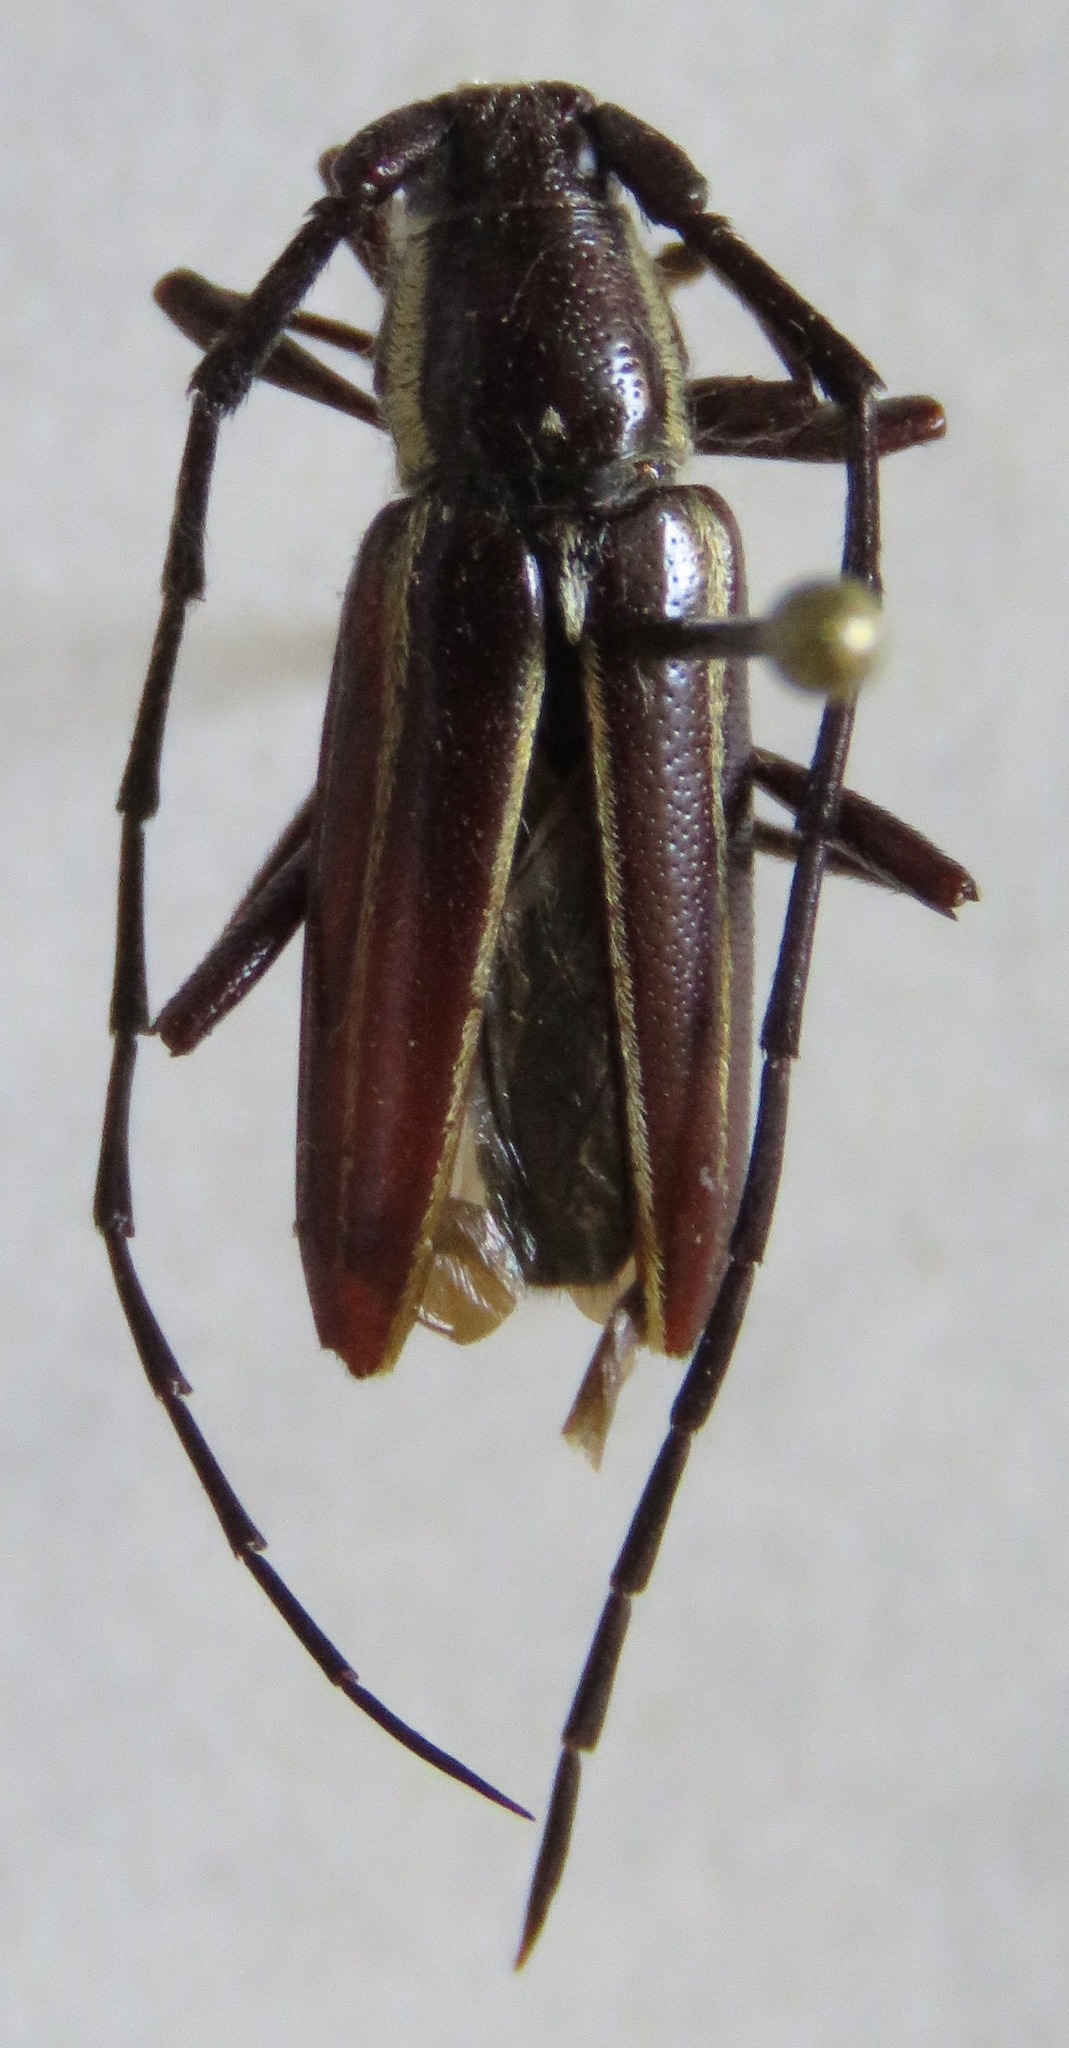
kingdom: Animalia
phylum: Arthropoda
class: Insecta
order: Coleoptera
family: Cerambycidae
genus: Sphaenothecus
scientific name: Sphaenothecus facetus
